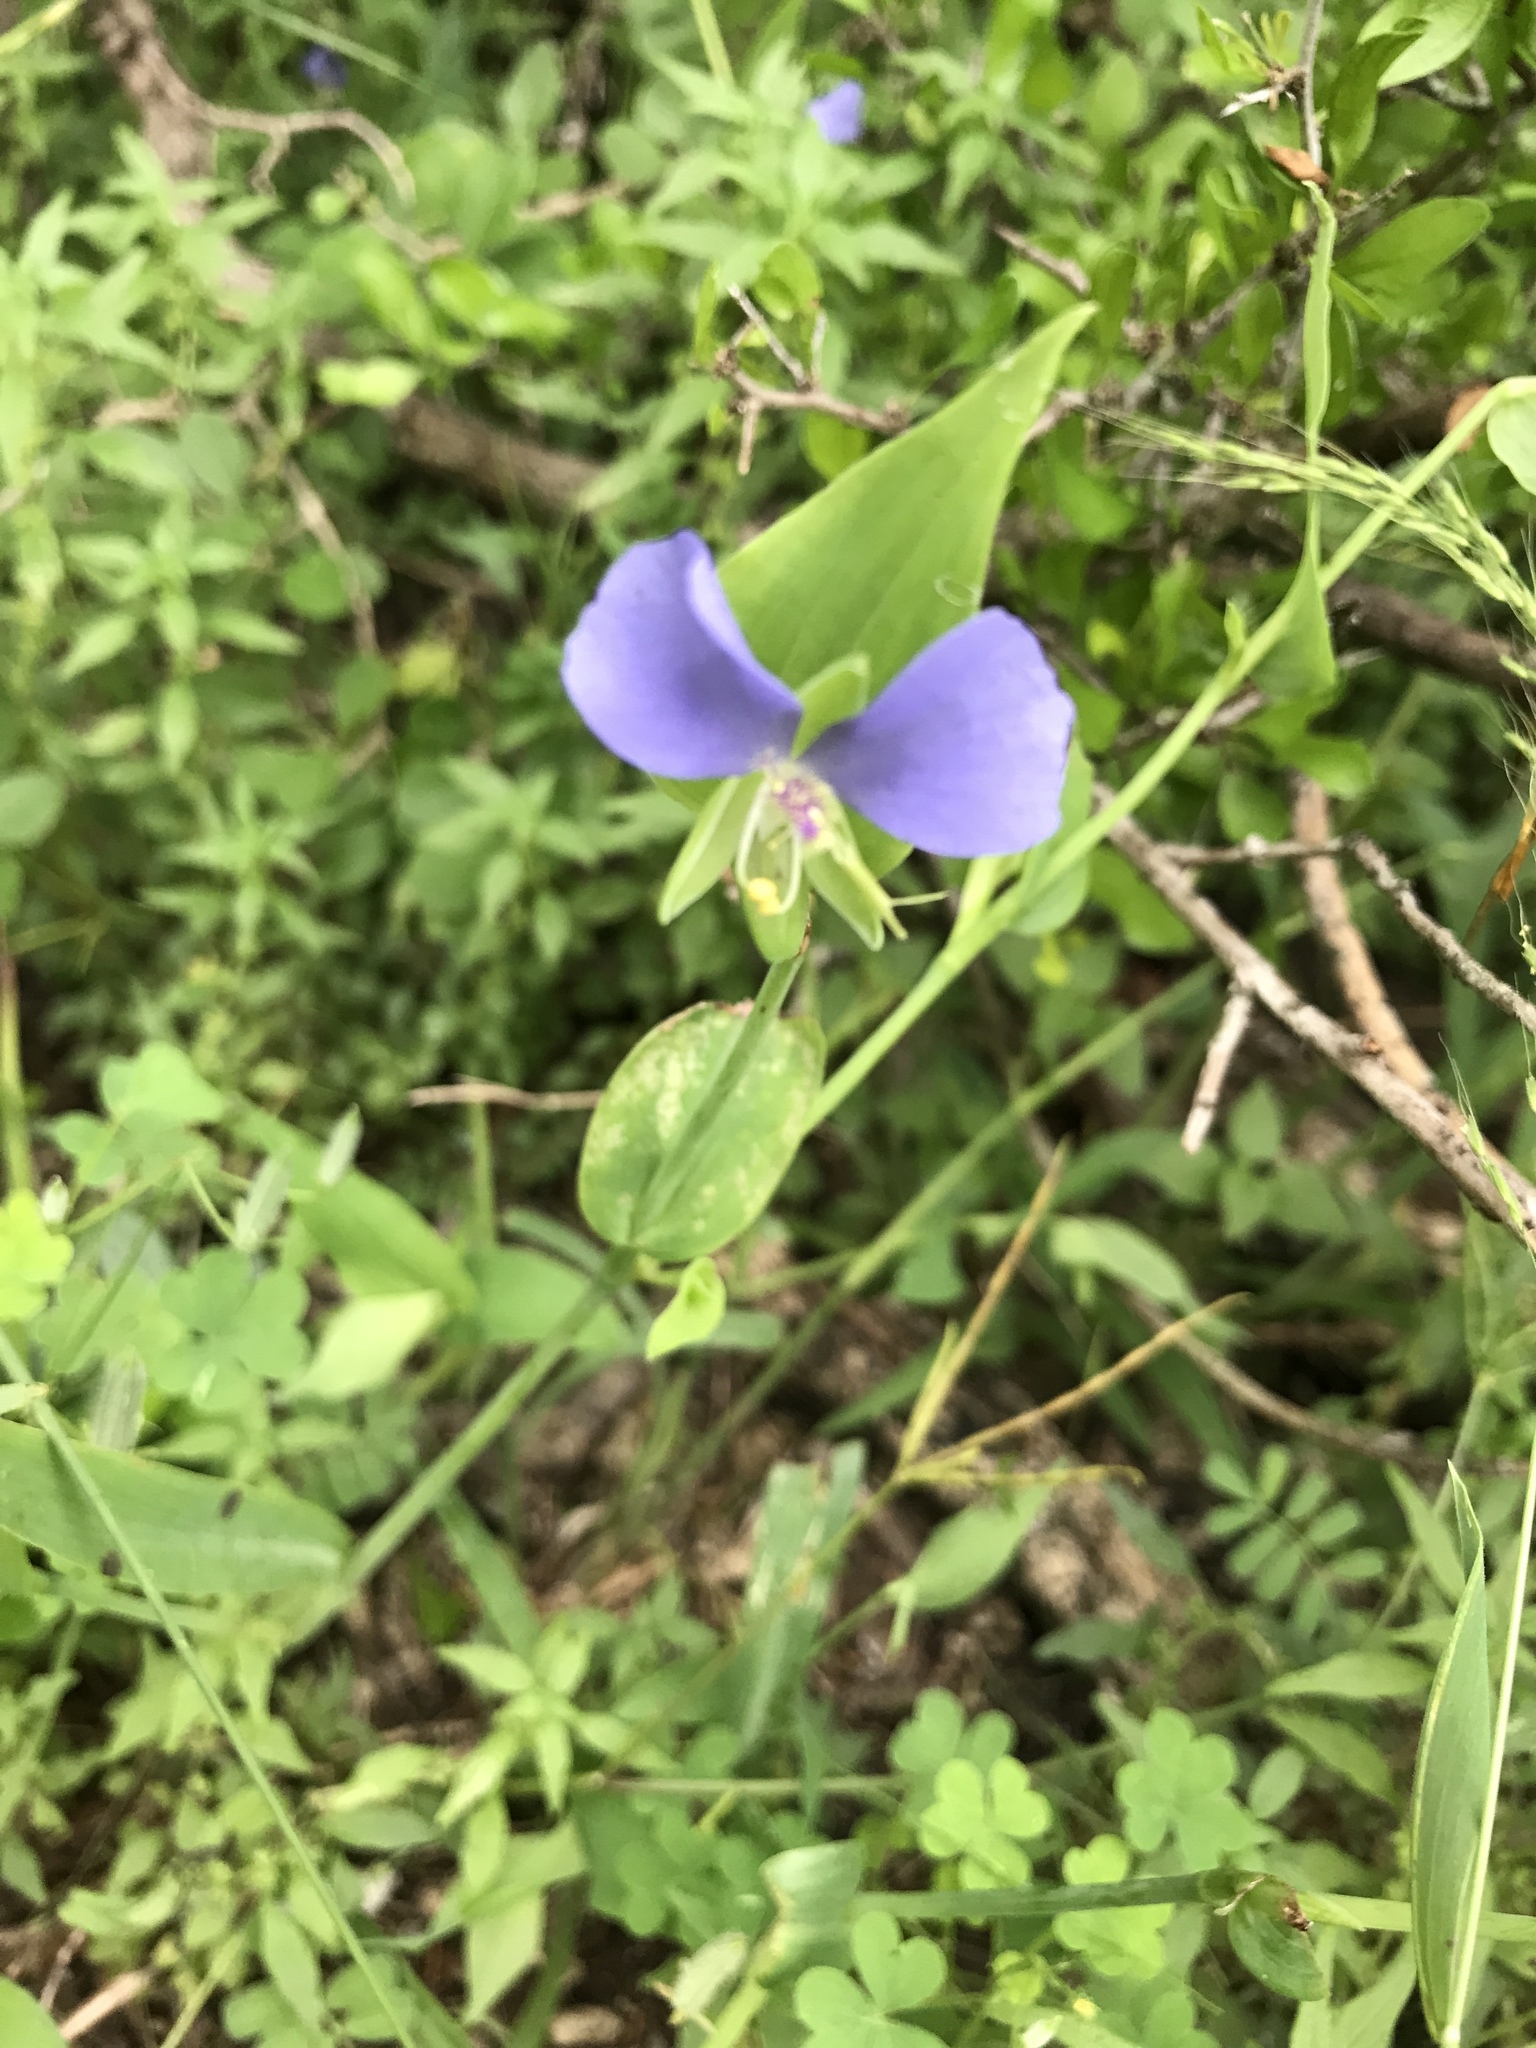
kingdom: Plantae
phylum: Tracheophyta
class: Liliopsida
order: Commelinales
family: Commelinaceae
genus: Tinantia
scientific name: Tinantia anomala
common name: False dayflower
